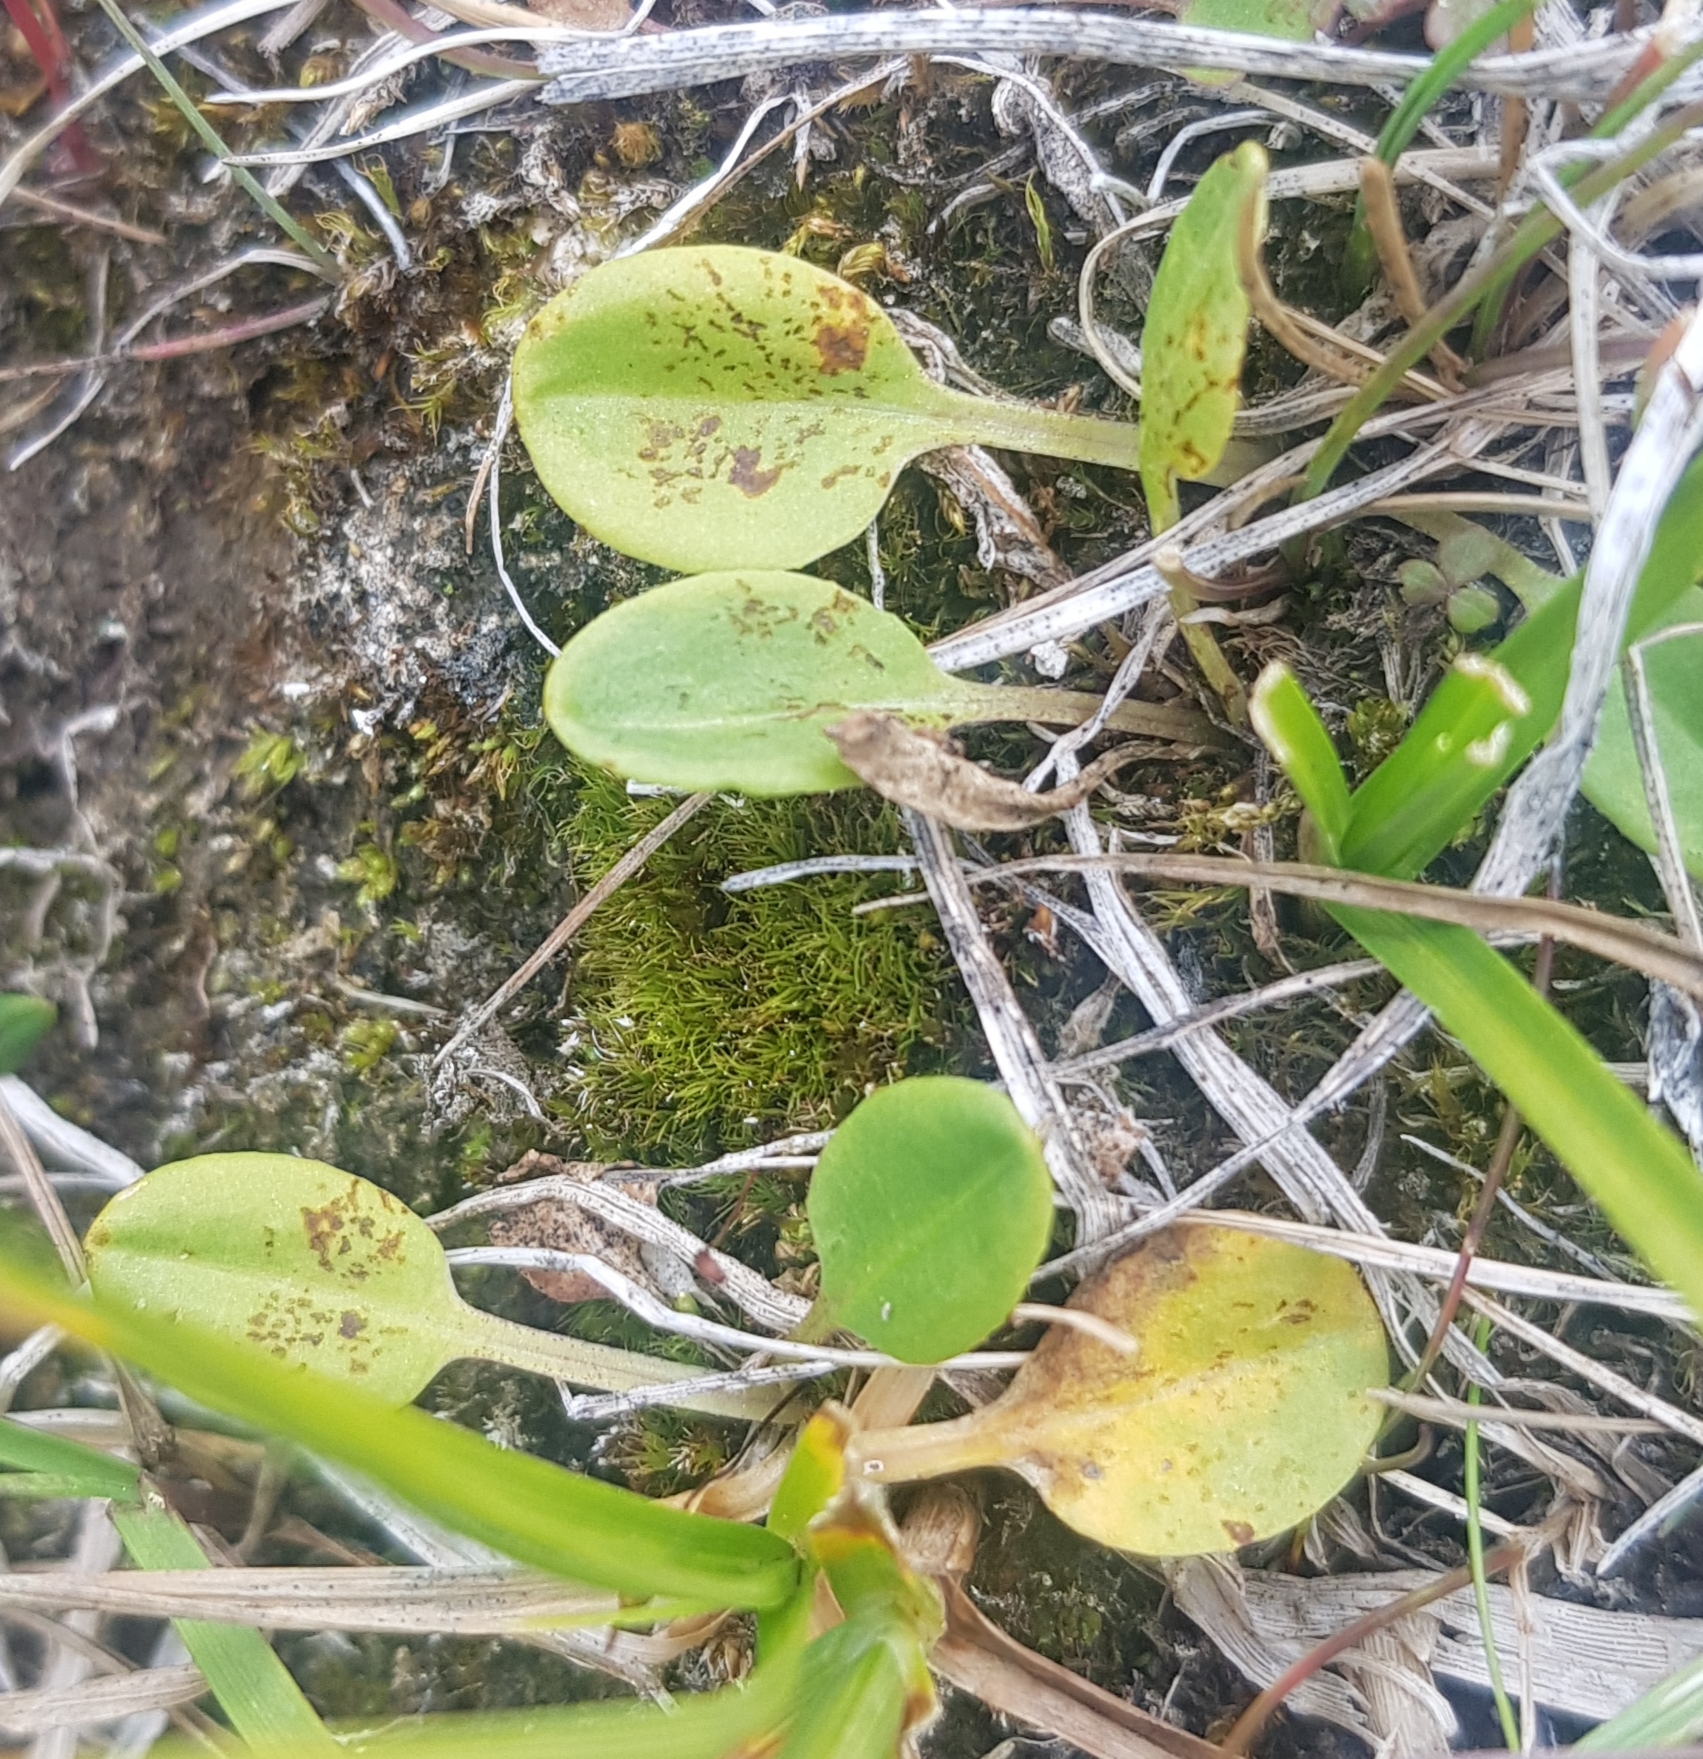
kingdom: Plantae
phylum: Tracheophyta
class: Magnoliopsida
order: Celastrales
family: Parnassiaceae
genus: Parnassia
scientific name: Parnassia palustris
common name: Grass-of-parnassus
